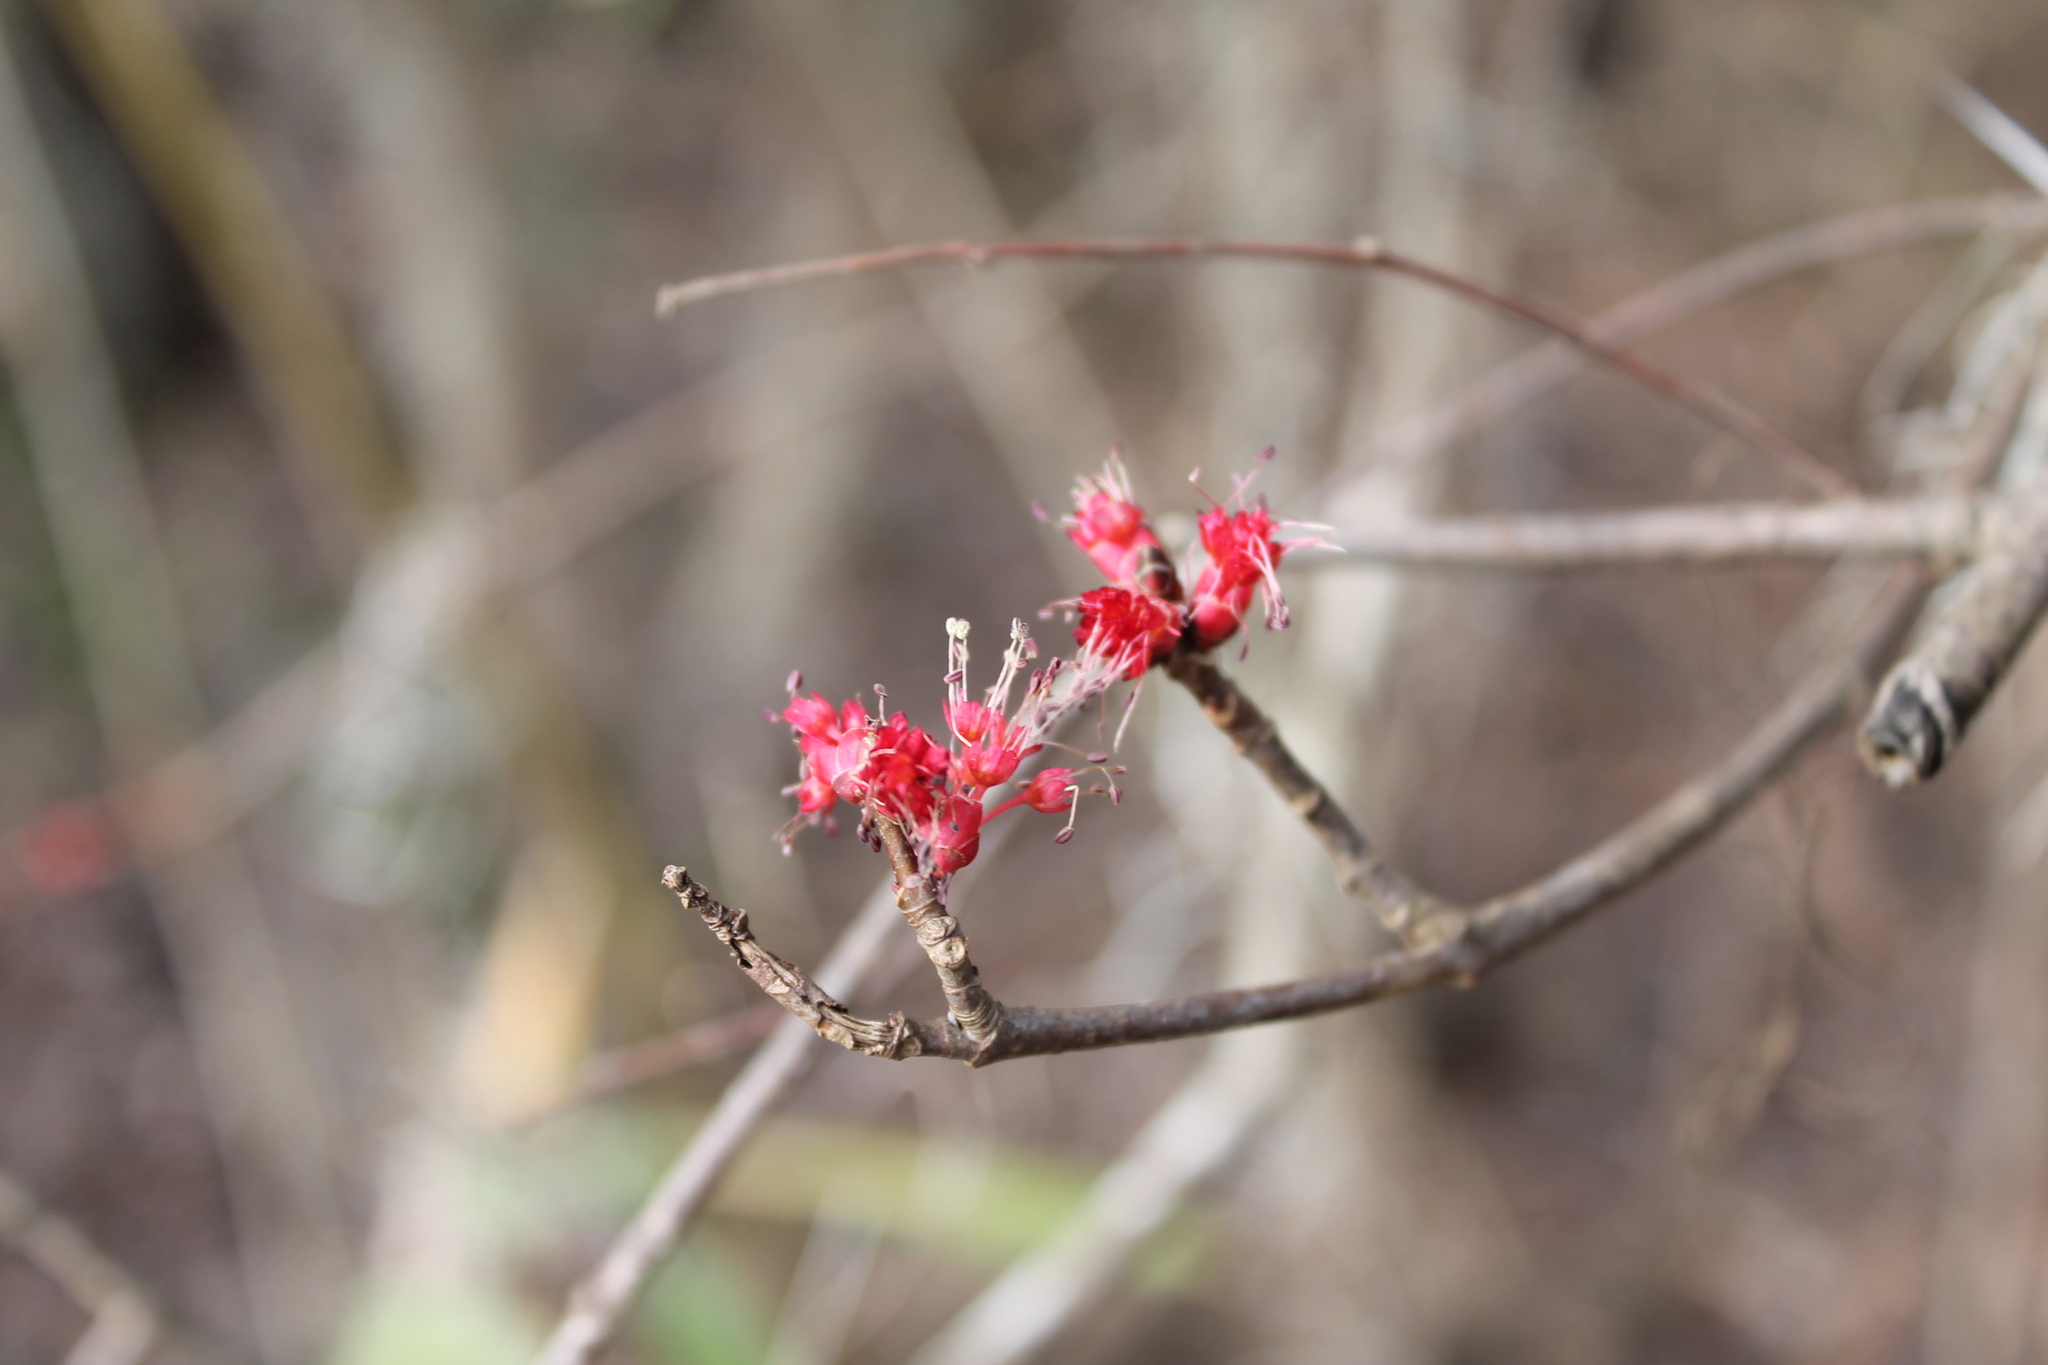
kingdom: Plantae
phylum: Tracheophyta
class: Magnoliopsida
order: Sapindales
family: Sapindaceae
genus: Acer
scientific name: Acer rubrum
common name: Red maple
